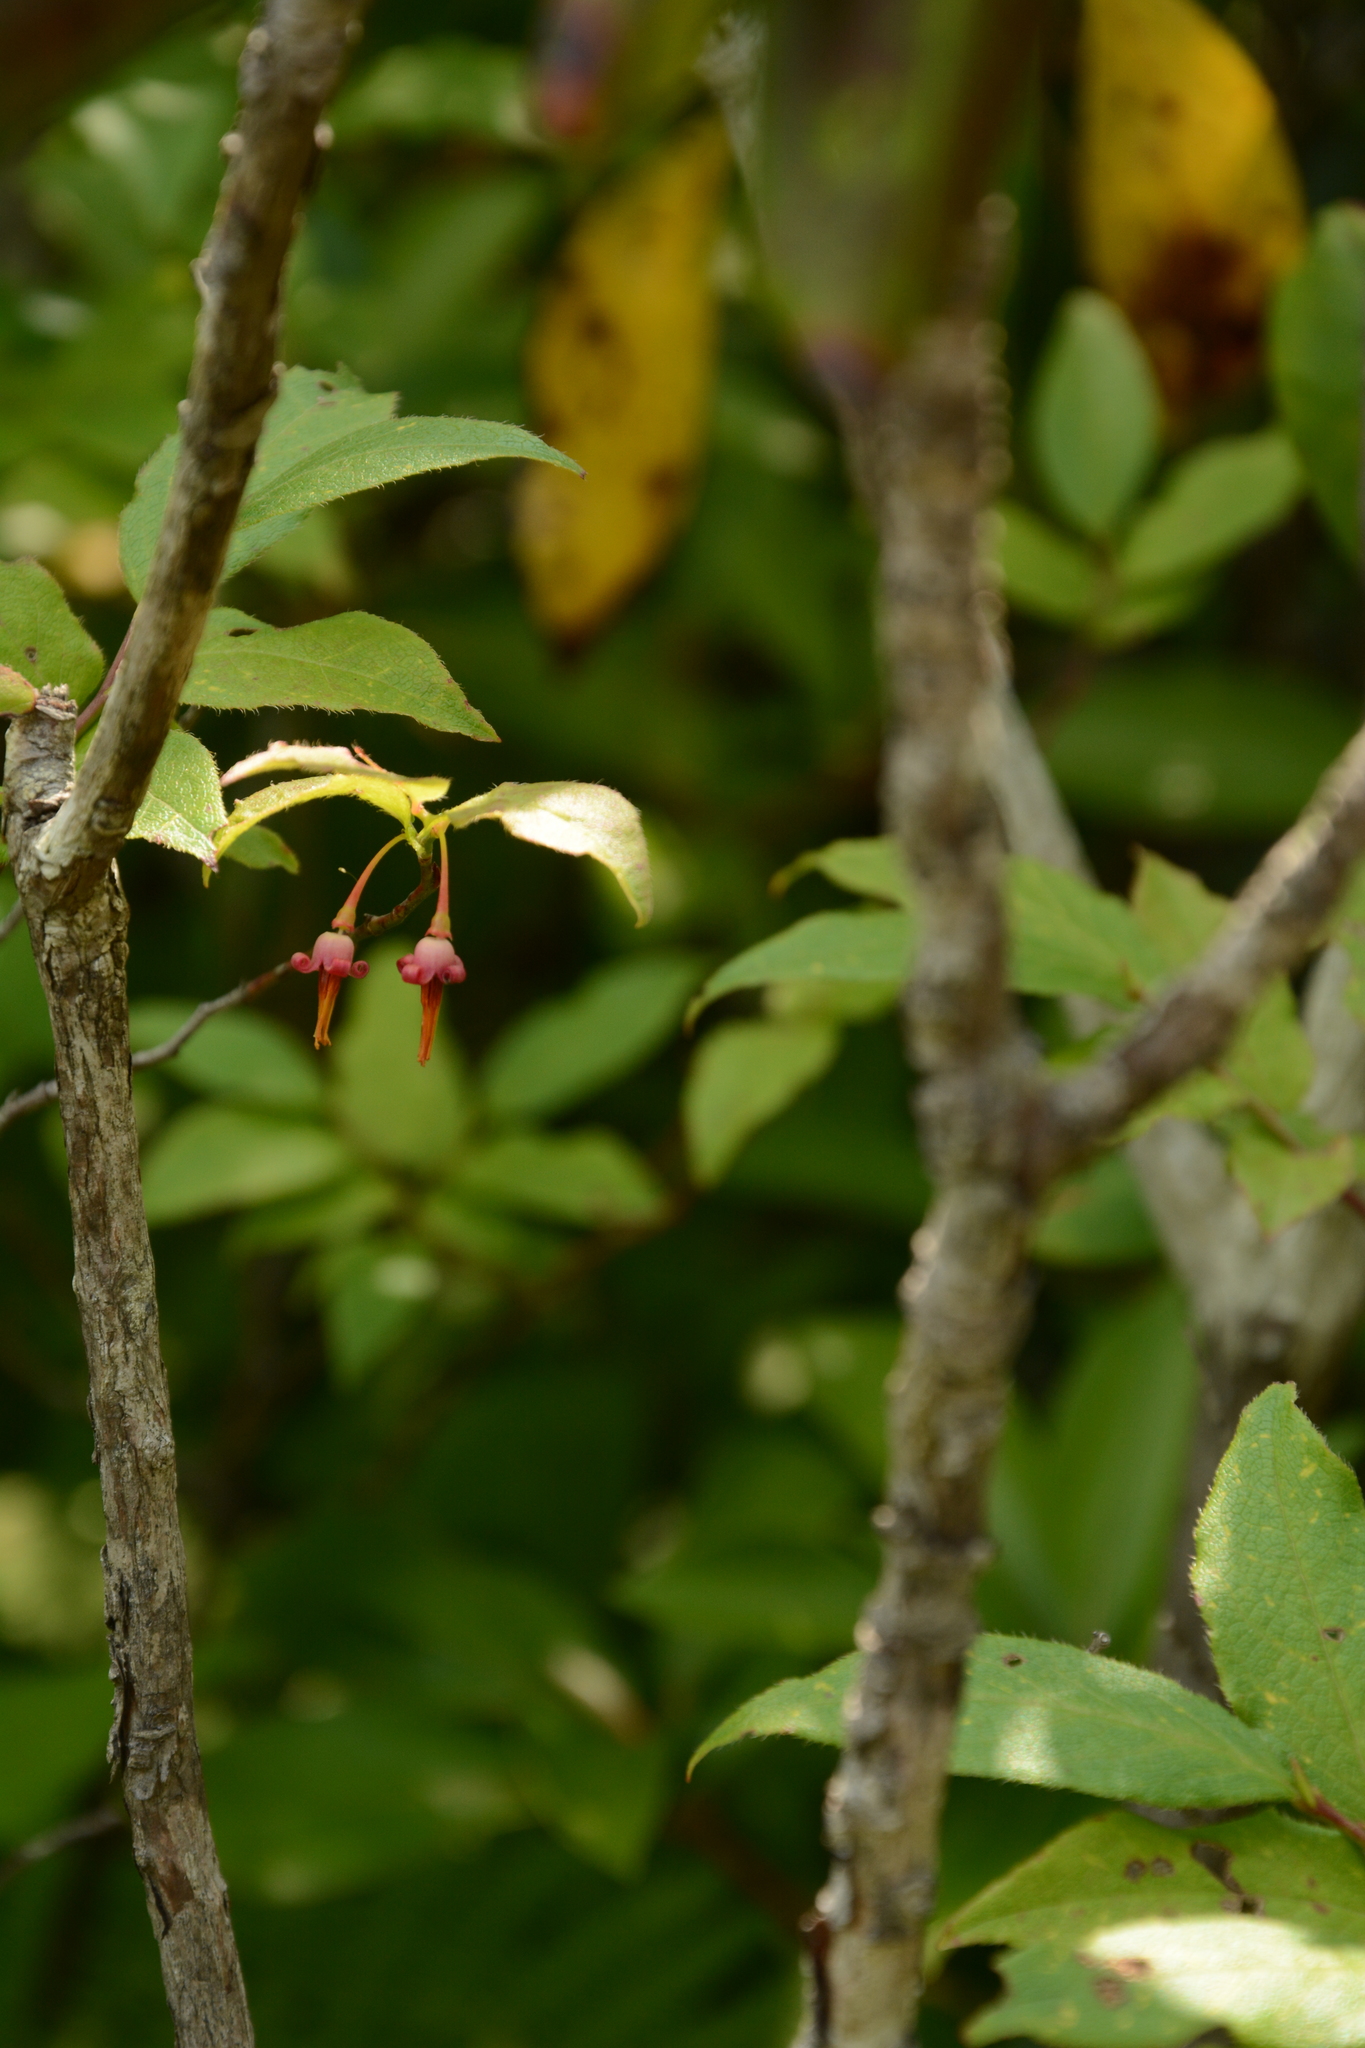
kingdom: Plantae
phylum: Tracheophyta
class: Magnoliopsida
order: Ericales
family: Ericaceae
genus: Vaccinium
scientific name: Vaccinium erythrocarpum
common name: Bearberry
